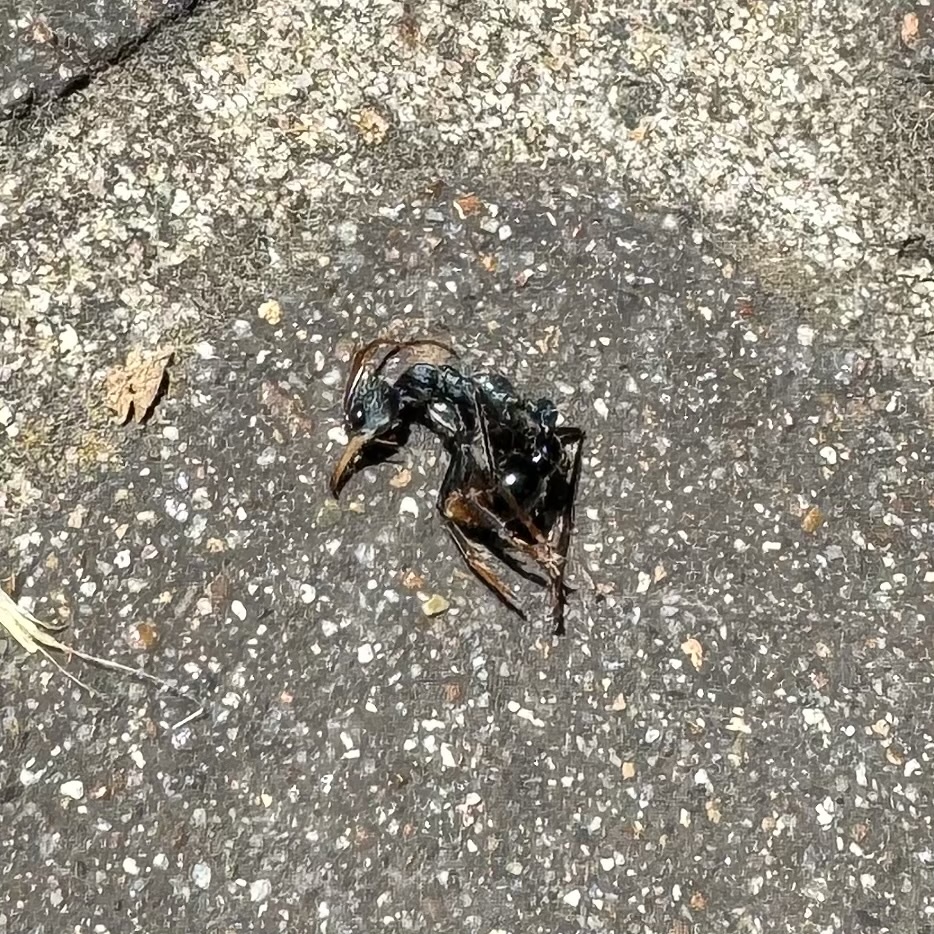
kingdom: Animalia
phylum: Arthropoda
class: Insecta
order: Hymenoptera
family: Formicidae
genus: Myrmecia
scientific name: Myrmecia tarsata
